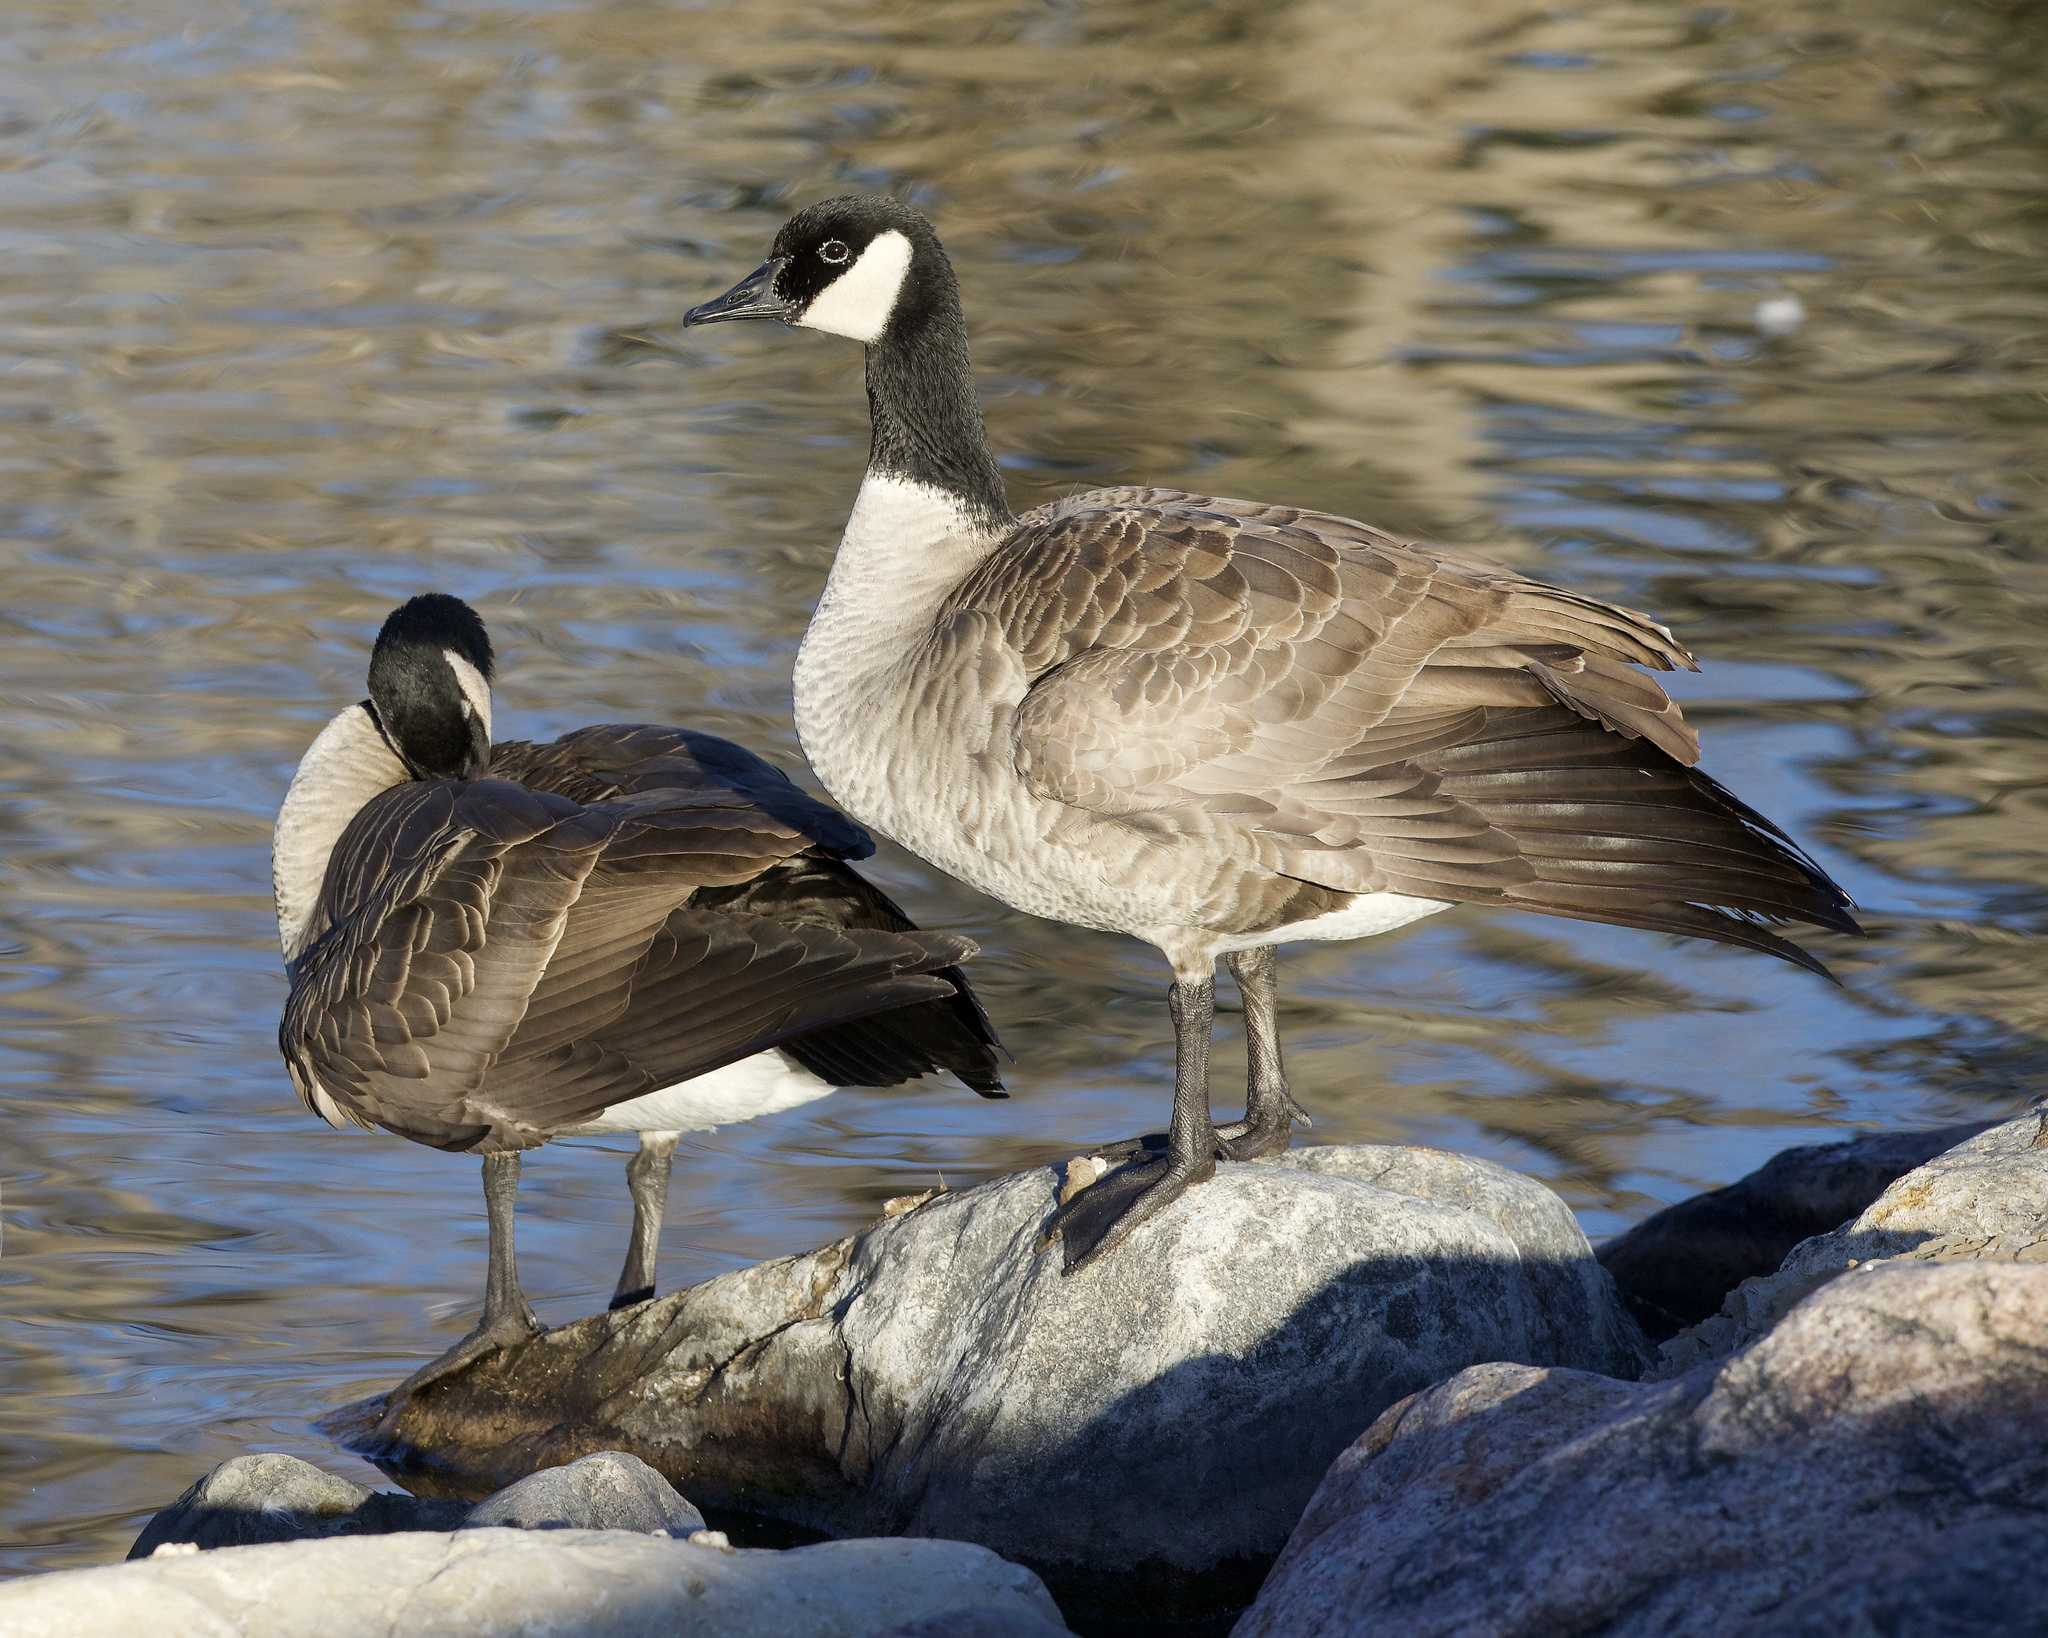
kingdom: Animalia
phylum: Chordata
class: Aves
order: Anseriformes
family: Anatidae
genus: Branta
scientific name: Branta canadensis
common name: Canada goose
